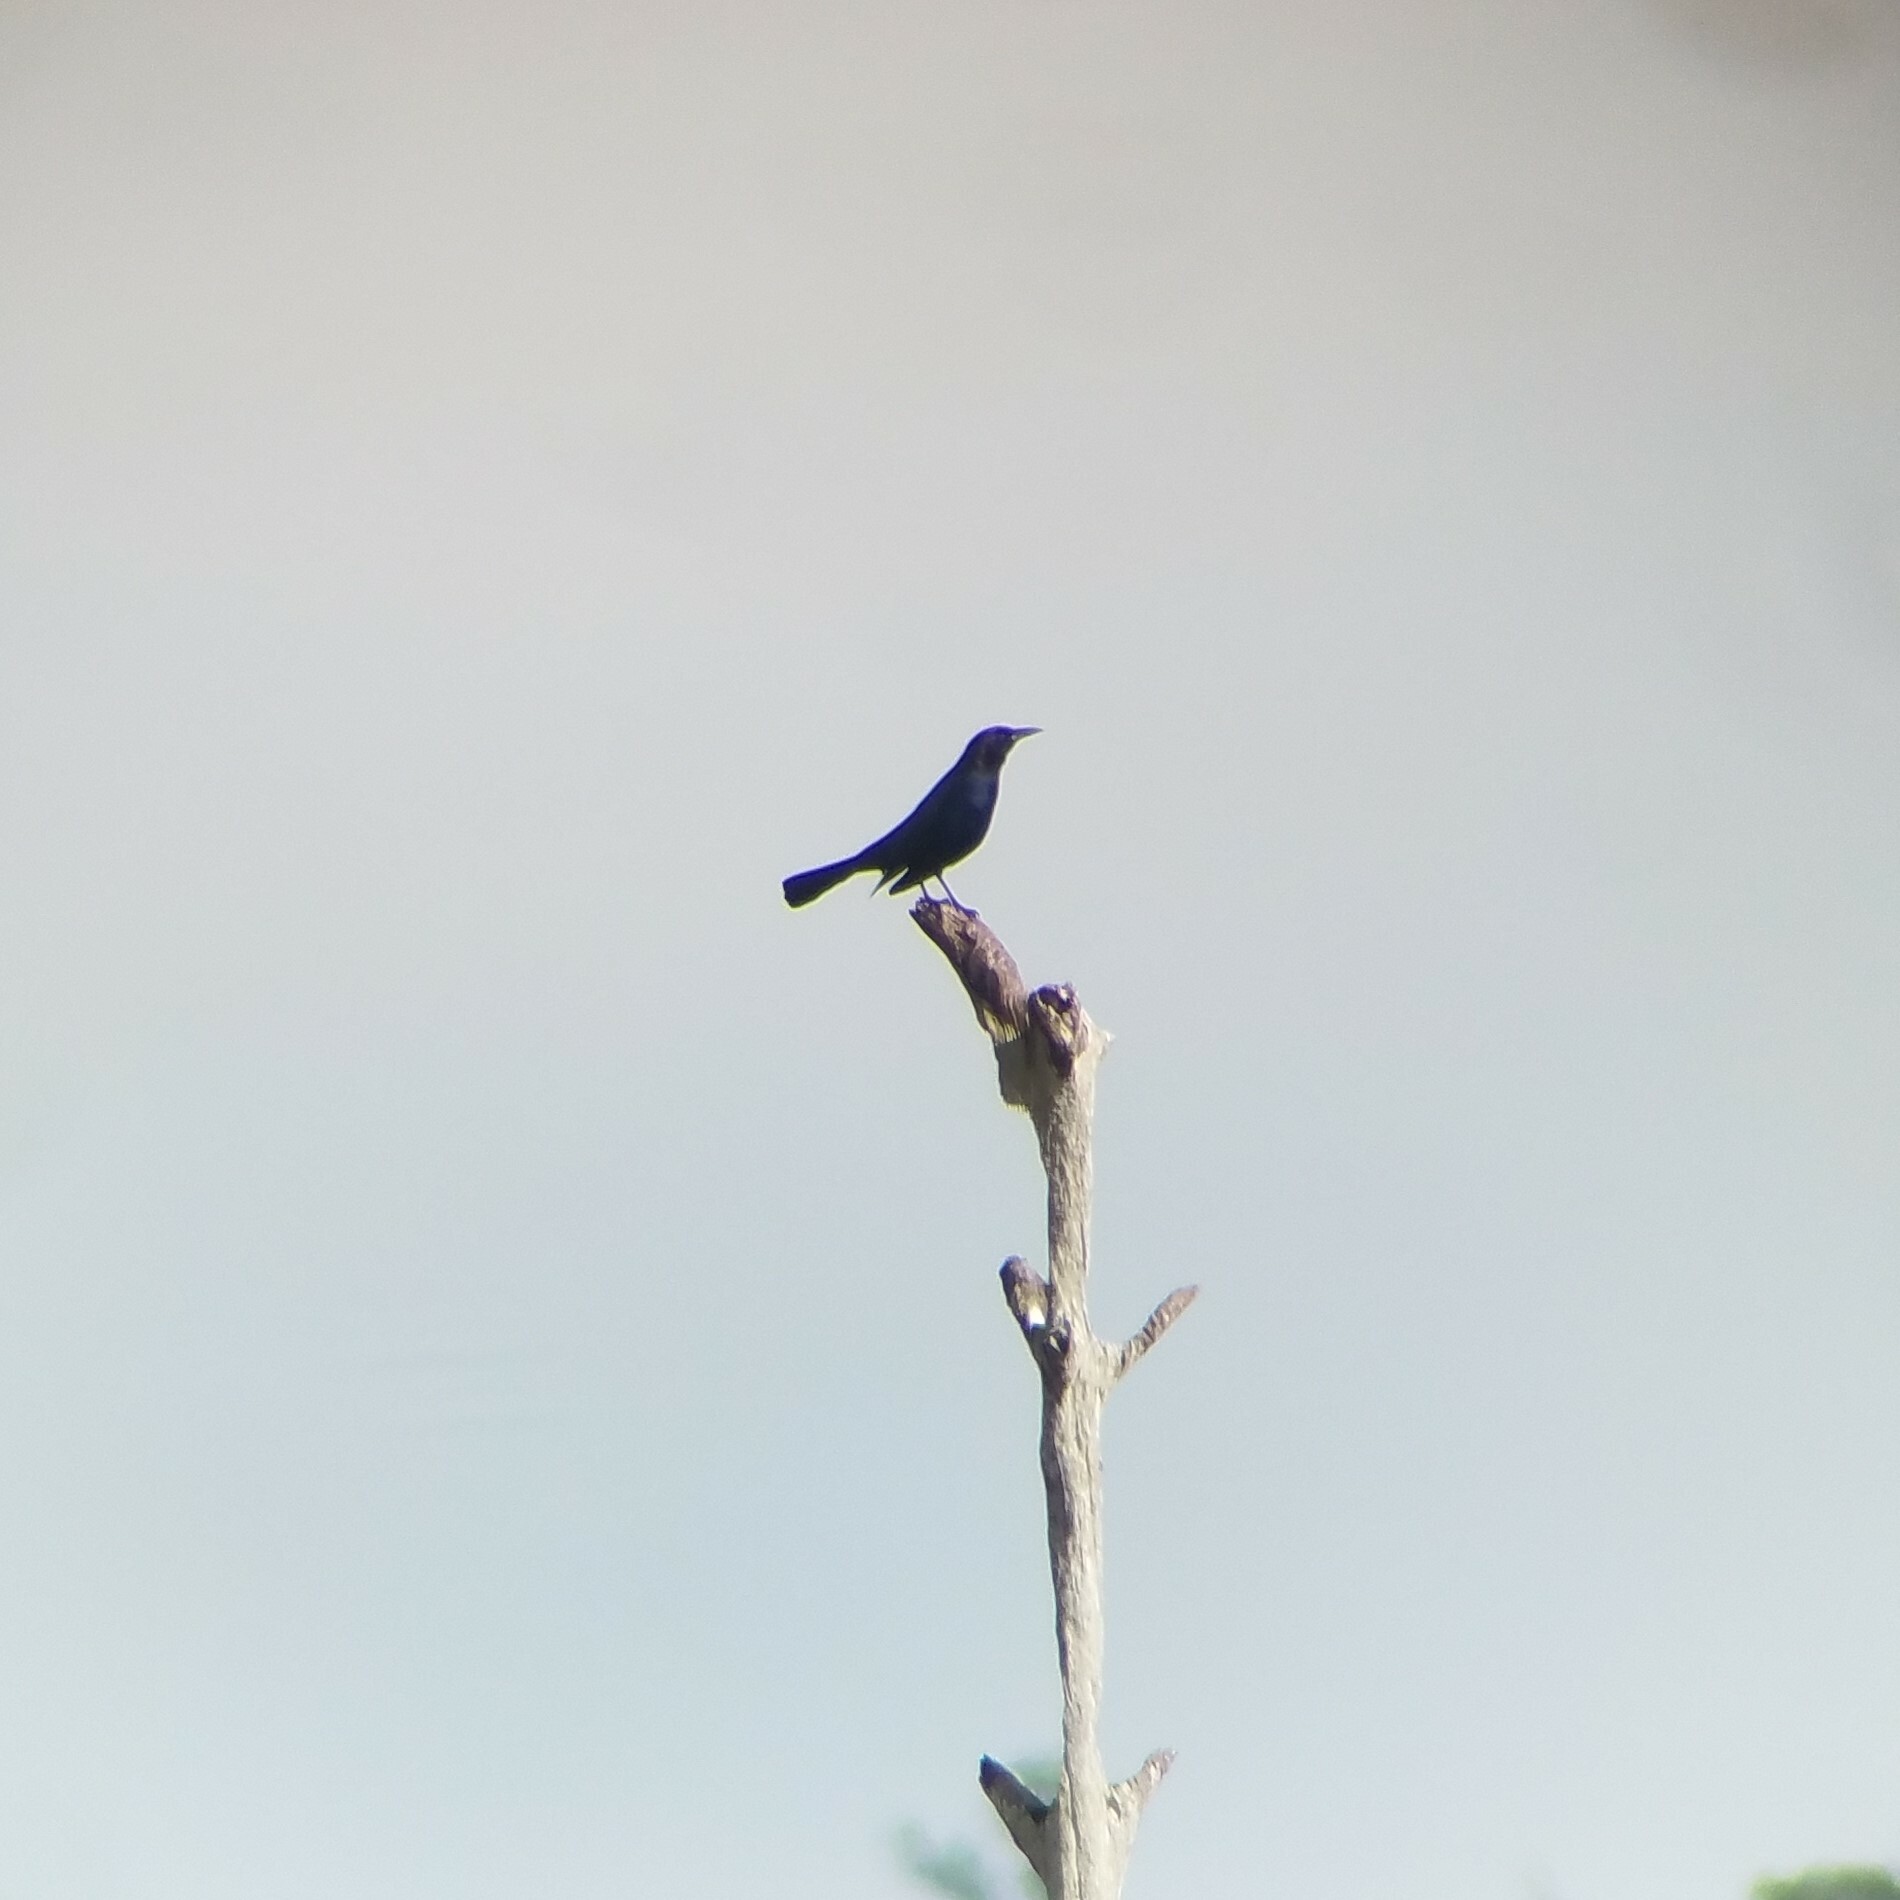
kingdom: Animalia
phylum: Chordata
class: Aves
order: Passeriformes
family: Icteridae
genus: Quiscalus
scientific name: Quiscalus major
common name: Boat-tailed grackle
